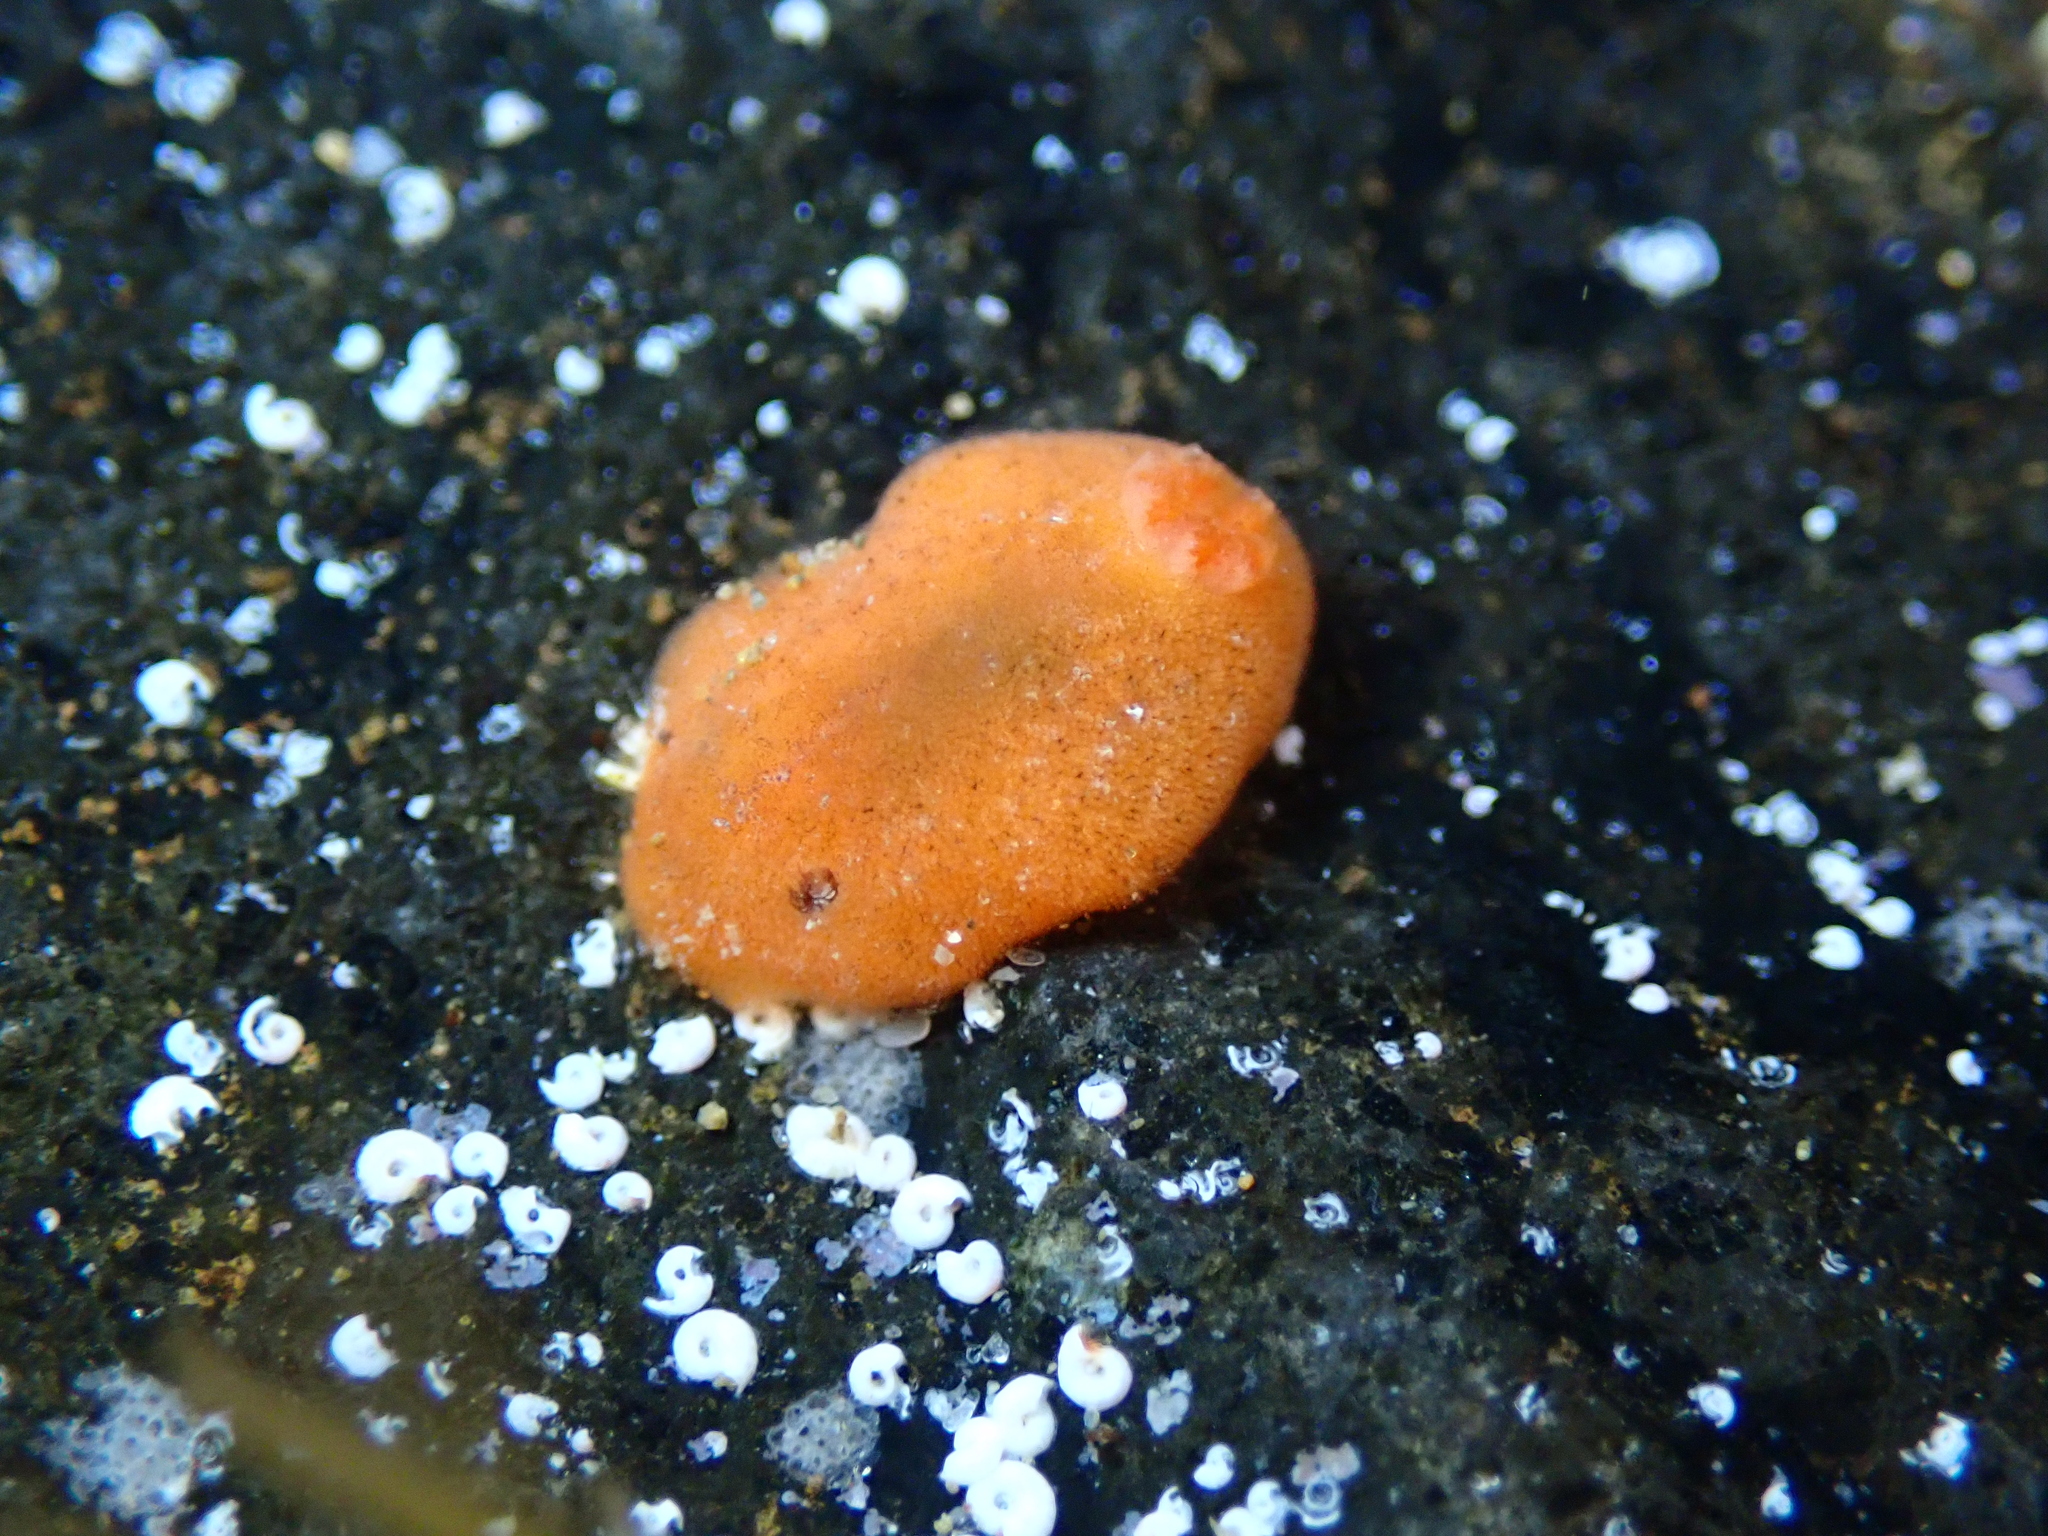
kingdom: Animalia
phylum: Mollusca
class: Gastropoda
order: Nudibranchia
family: Discodorididae
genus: Rostanga
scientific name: Rostanga muscula
